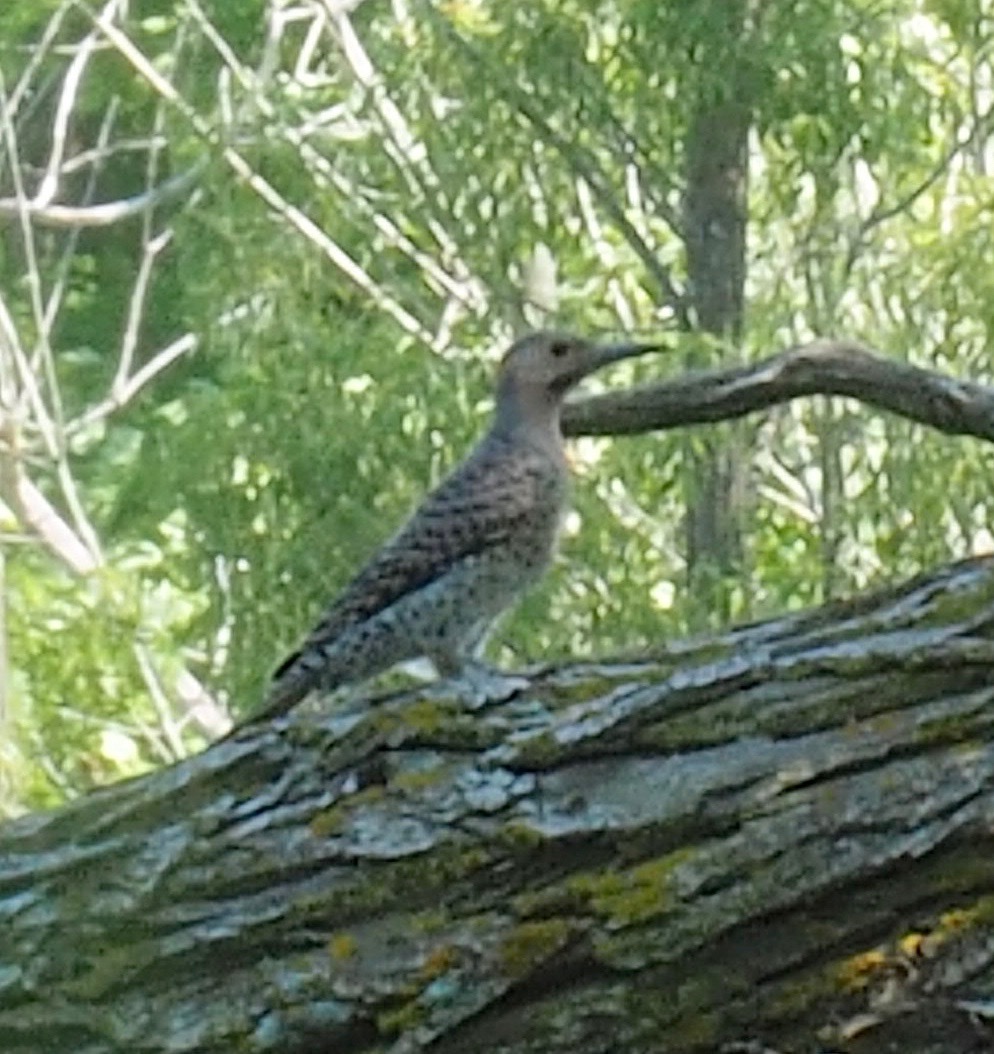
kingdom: Animalia
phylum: Chordata
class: Aves
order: Piciformes
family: Picidae
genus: Colaptes
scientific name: Colaptes auratus
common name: Northern flicker
